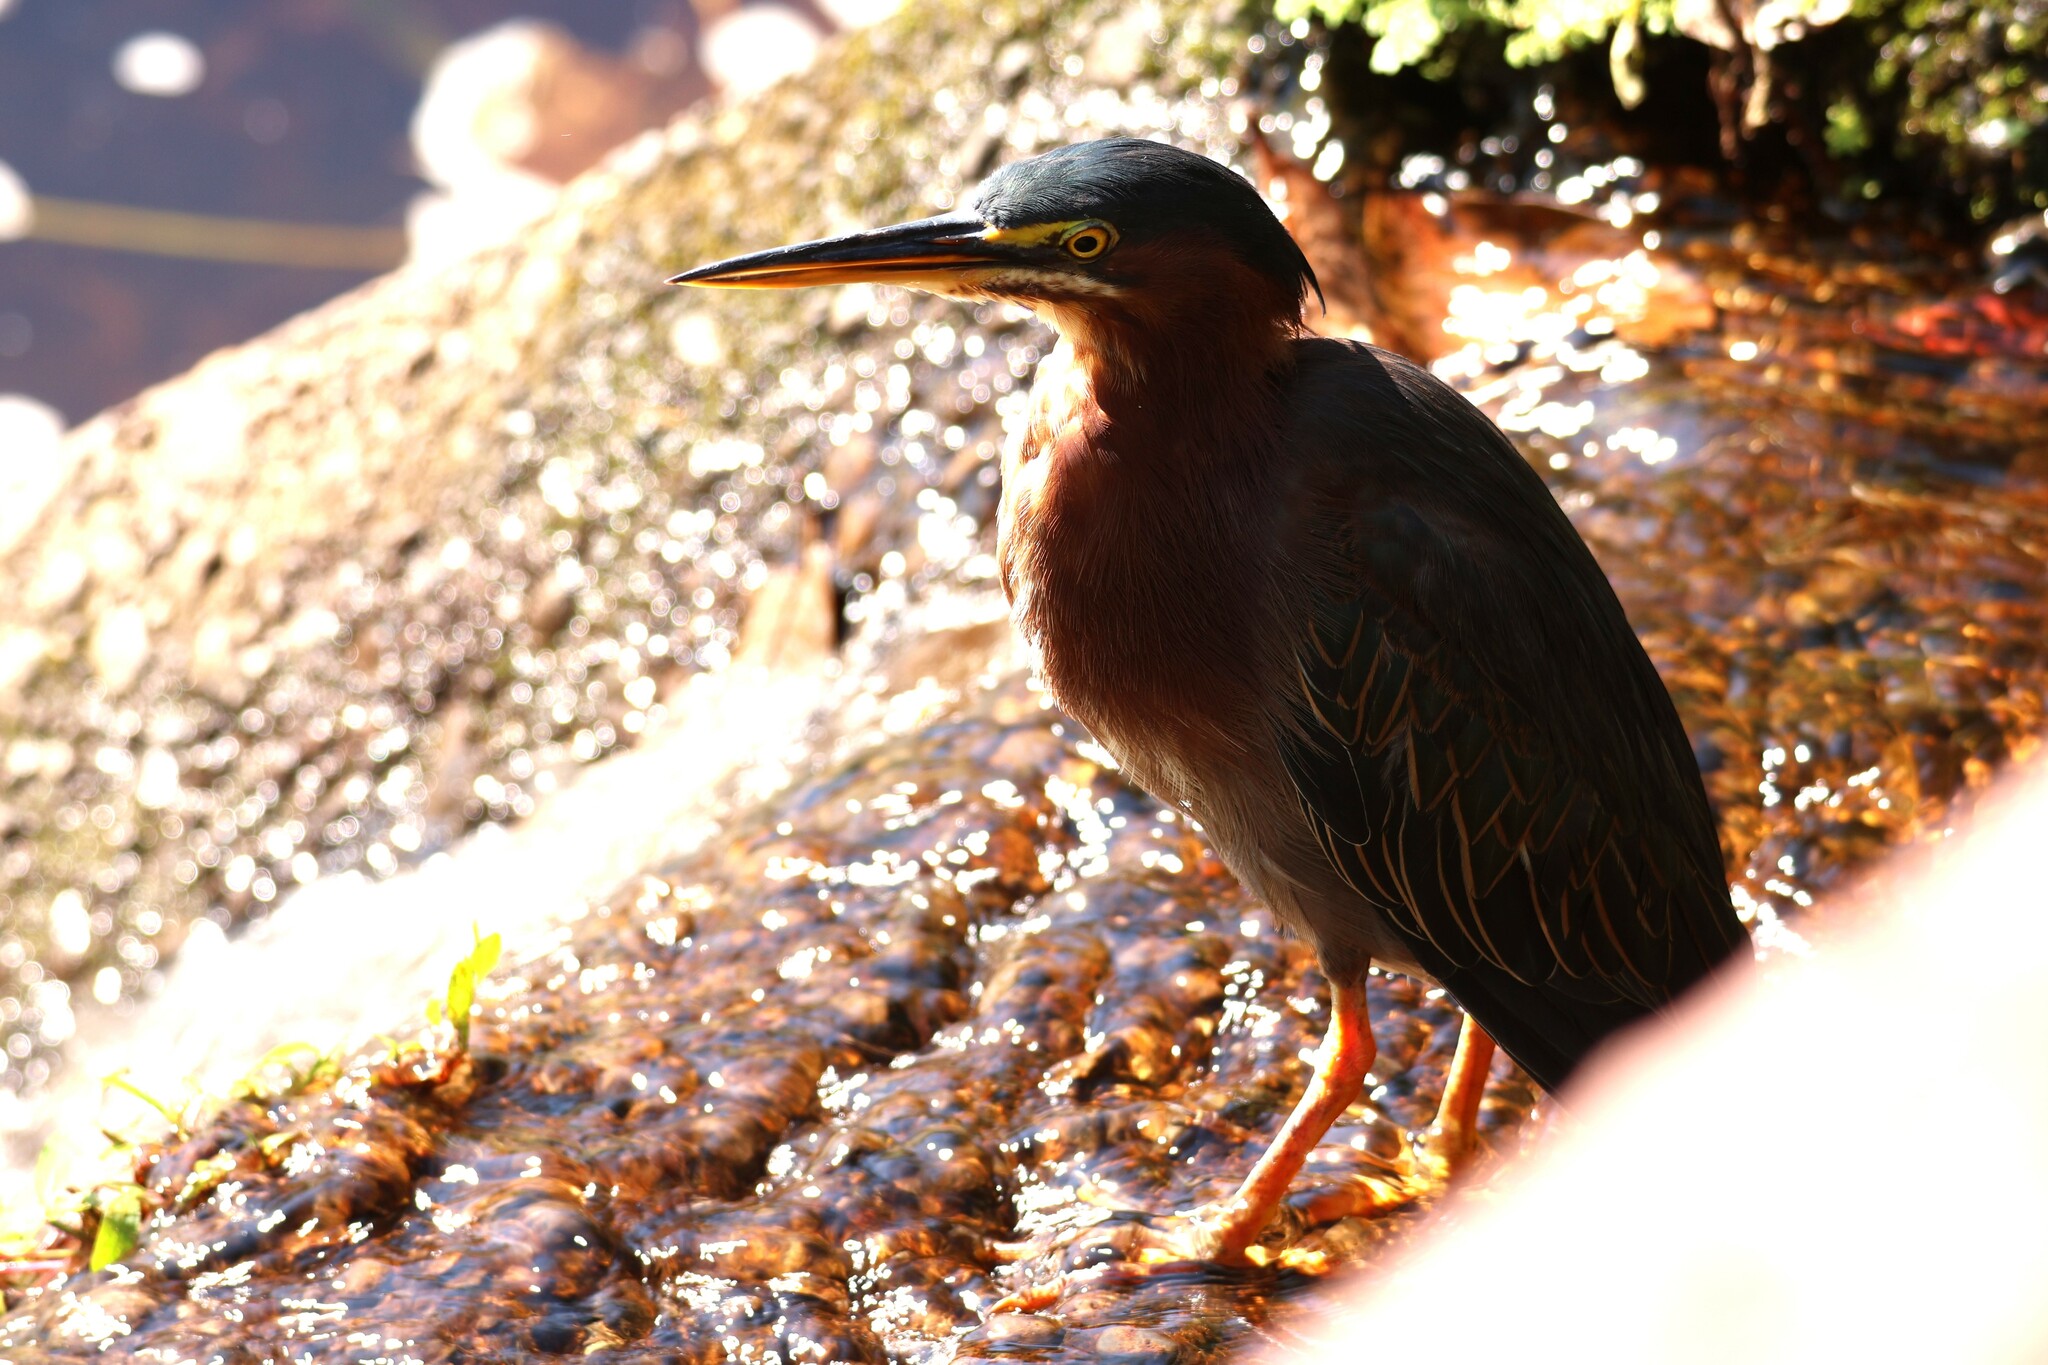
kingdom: Animalia
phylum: Chordata
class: Aves
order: Pelecaniformes
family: Ardeidae
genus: Butorides
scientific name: Butorides virescens
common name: Green heron
